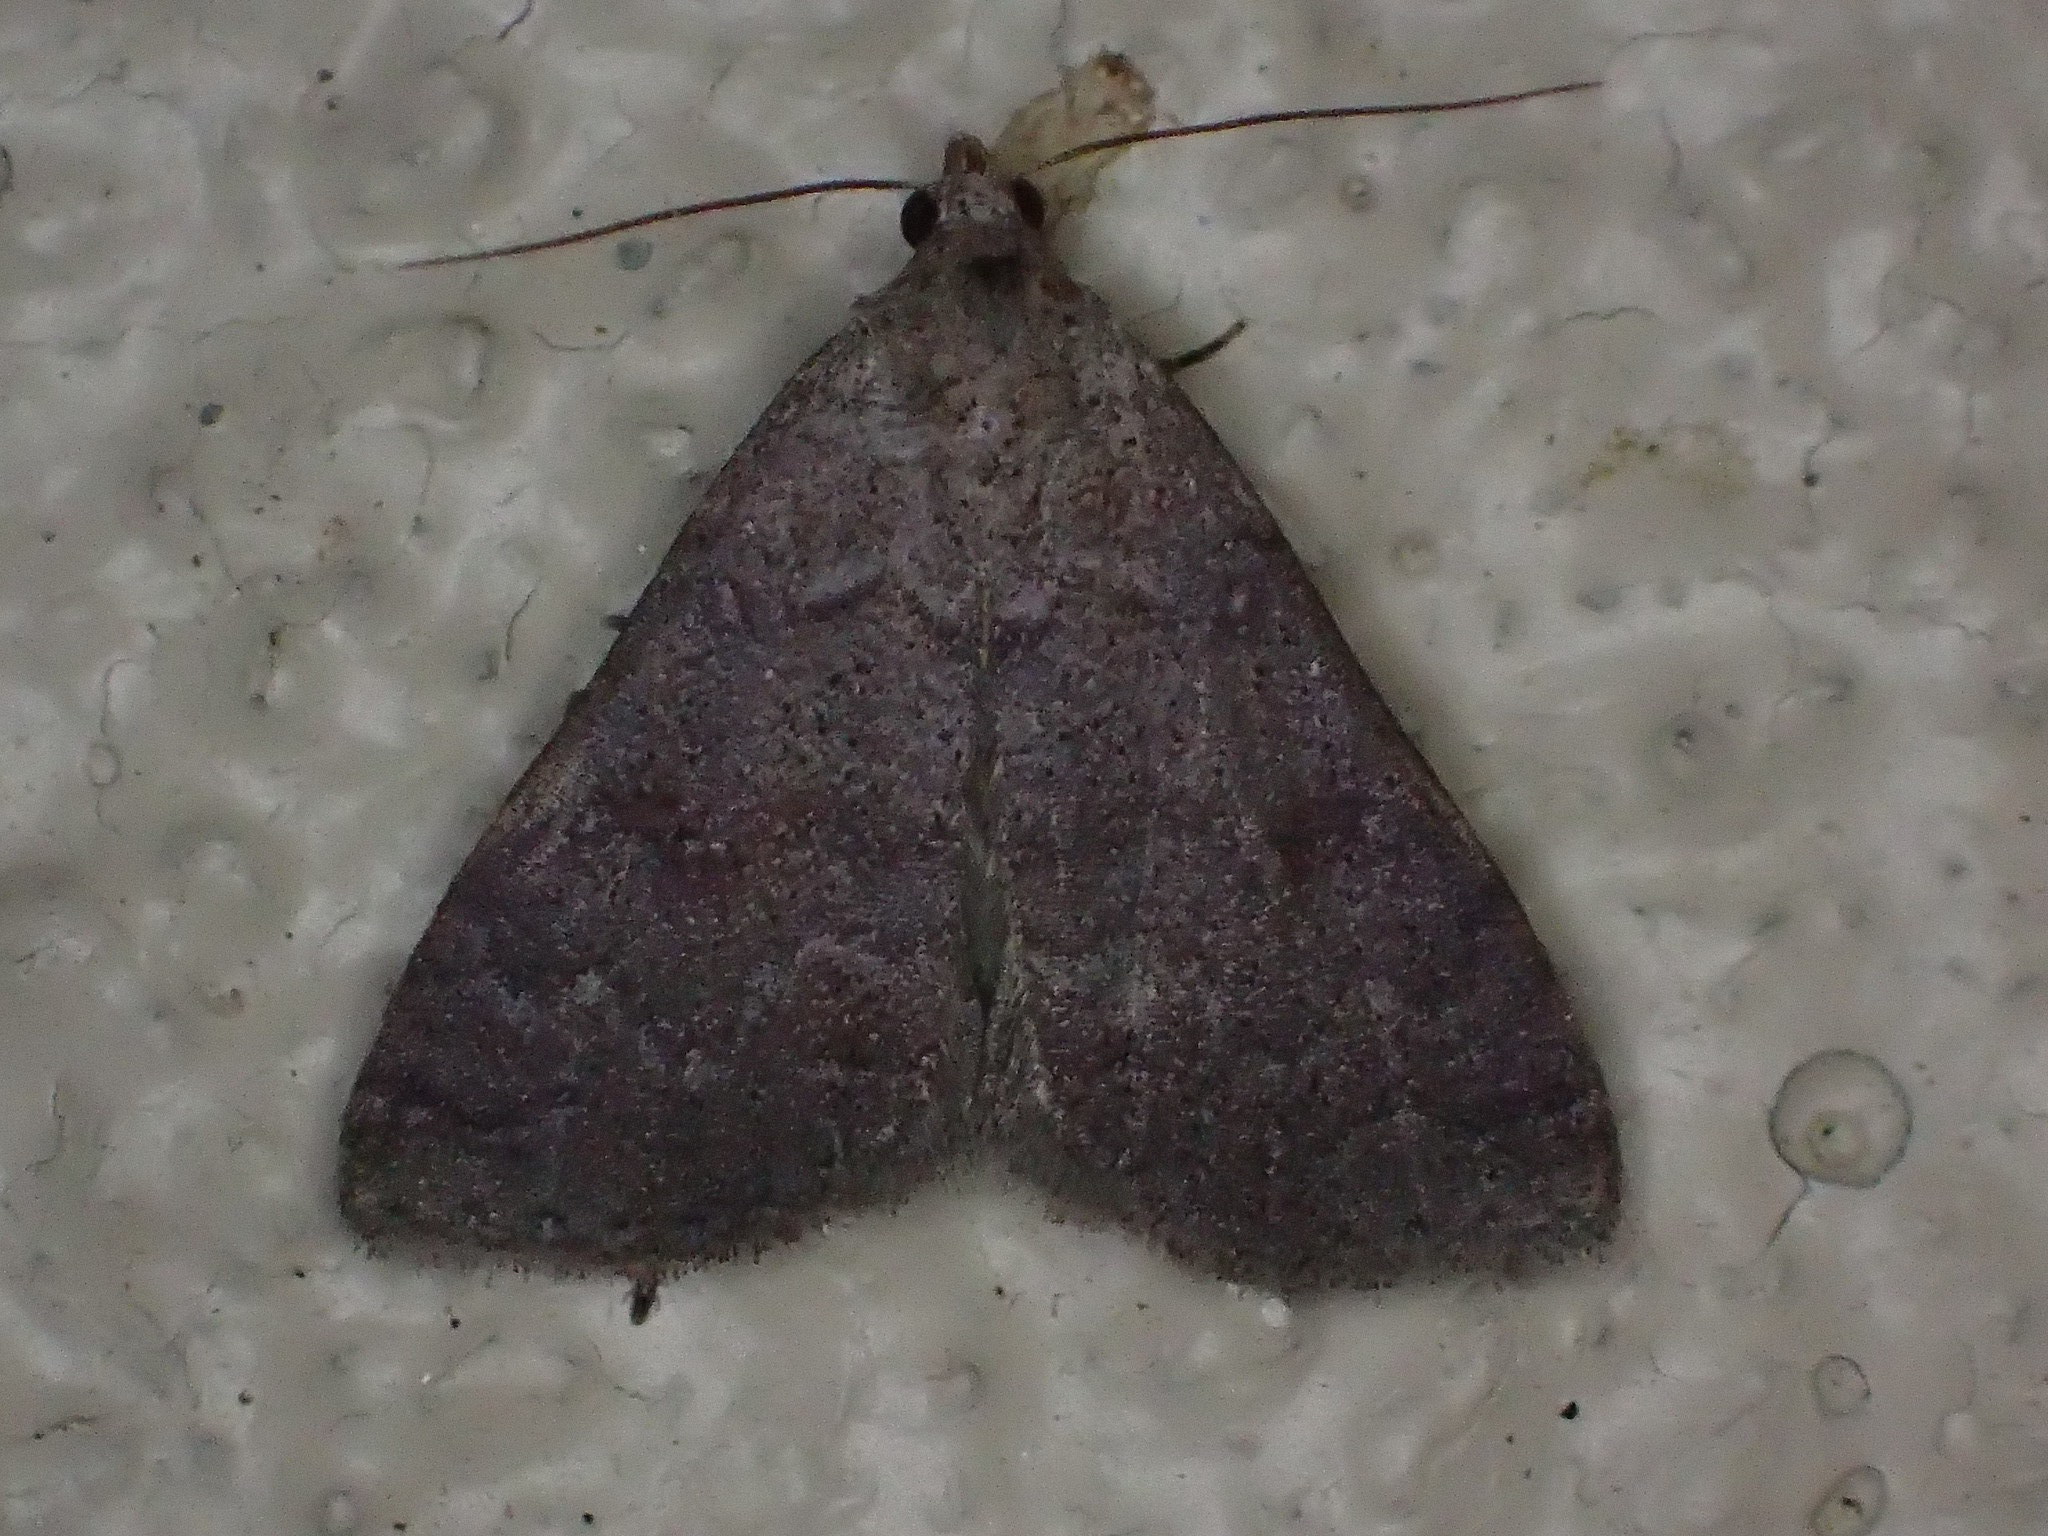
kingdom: Animalia
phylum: Arthropoda
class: Insecta
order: Lepidoptera
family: Erebidae
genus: Bleptina
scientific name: Bleptina sangamonia
